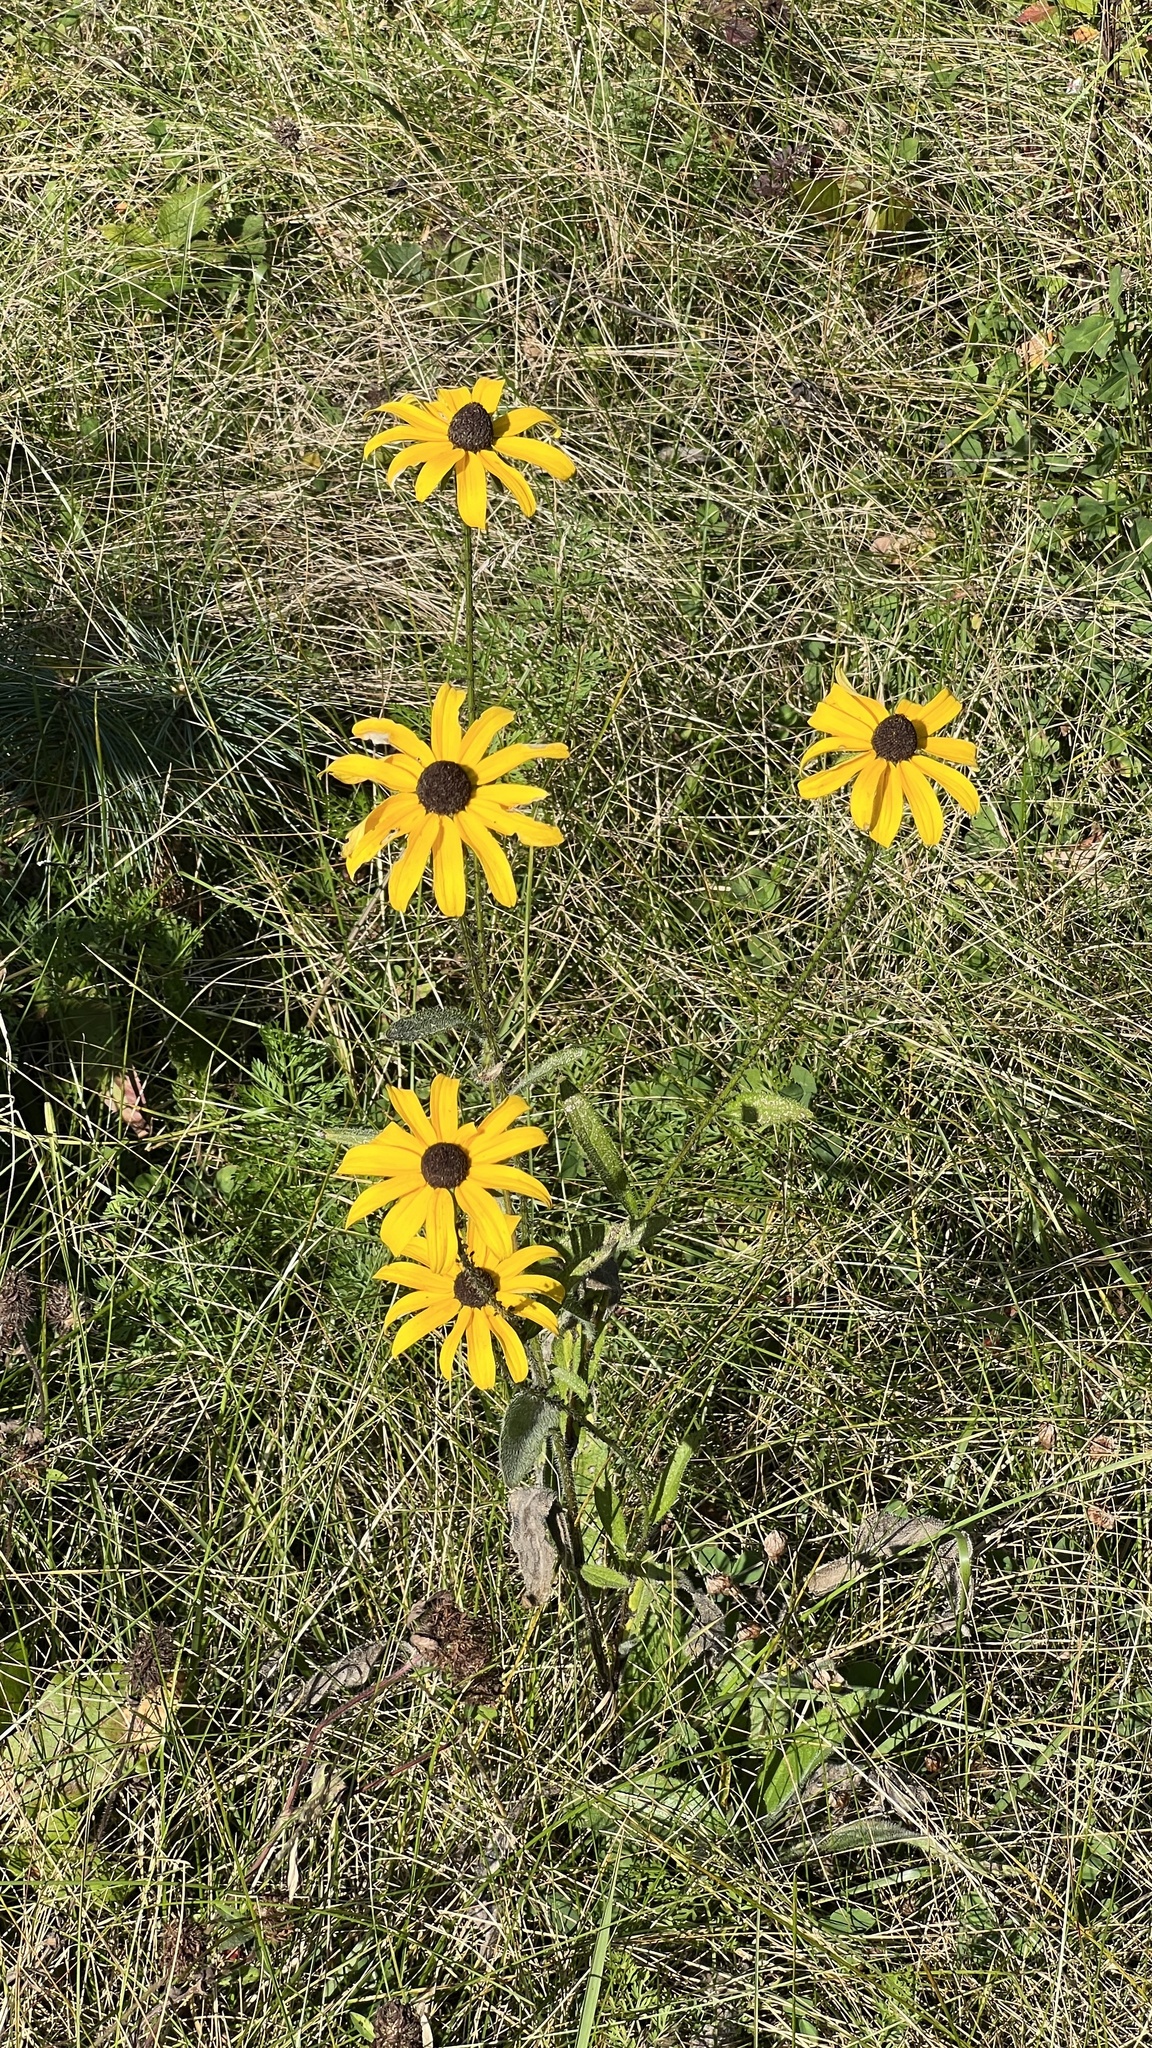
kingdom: Plantae
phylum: Tracheophyta
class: Magnoliopsida
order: Asterales
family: Asteraceae
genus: Rudbeckia
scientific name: Rudbeckia hirta
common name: Black-eyed-susan
